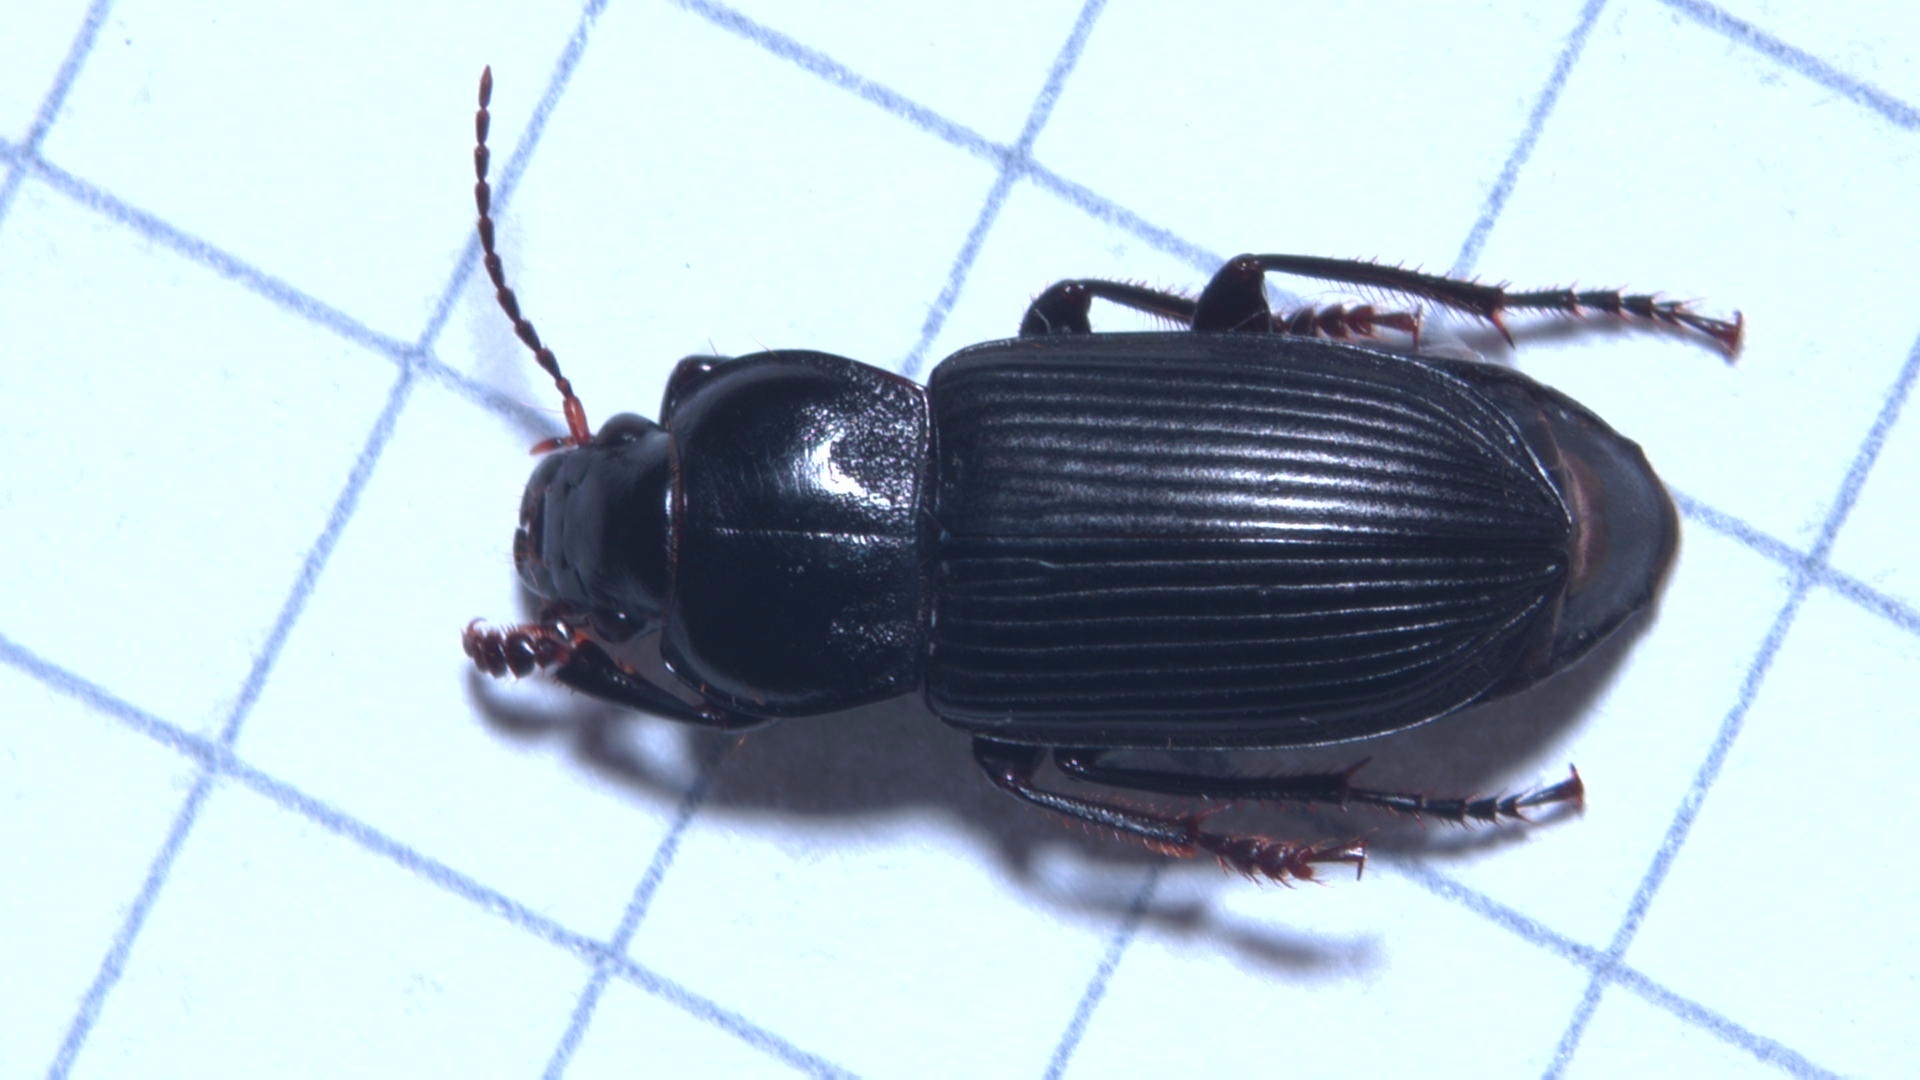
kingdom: Animalia
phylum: Arthropoda
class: Insecta
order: Coleoptera
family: Carabidae
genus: Anisodactylus
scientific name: Anisodactylus binotatus
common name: Two-marked harp ground beetle
